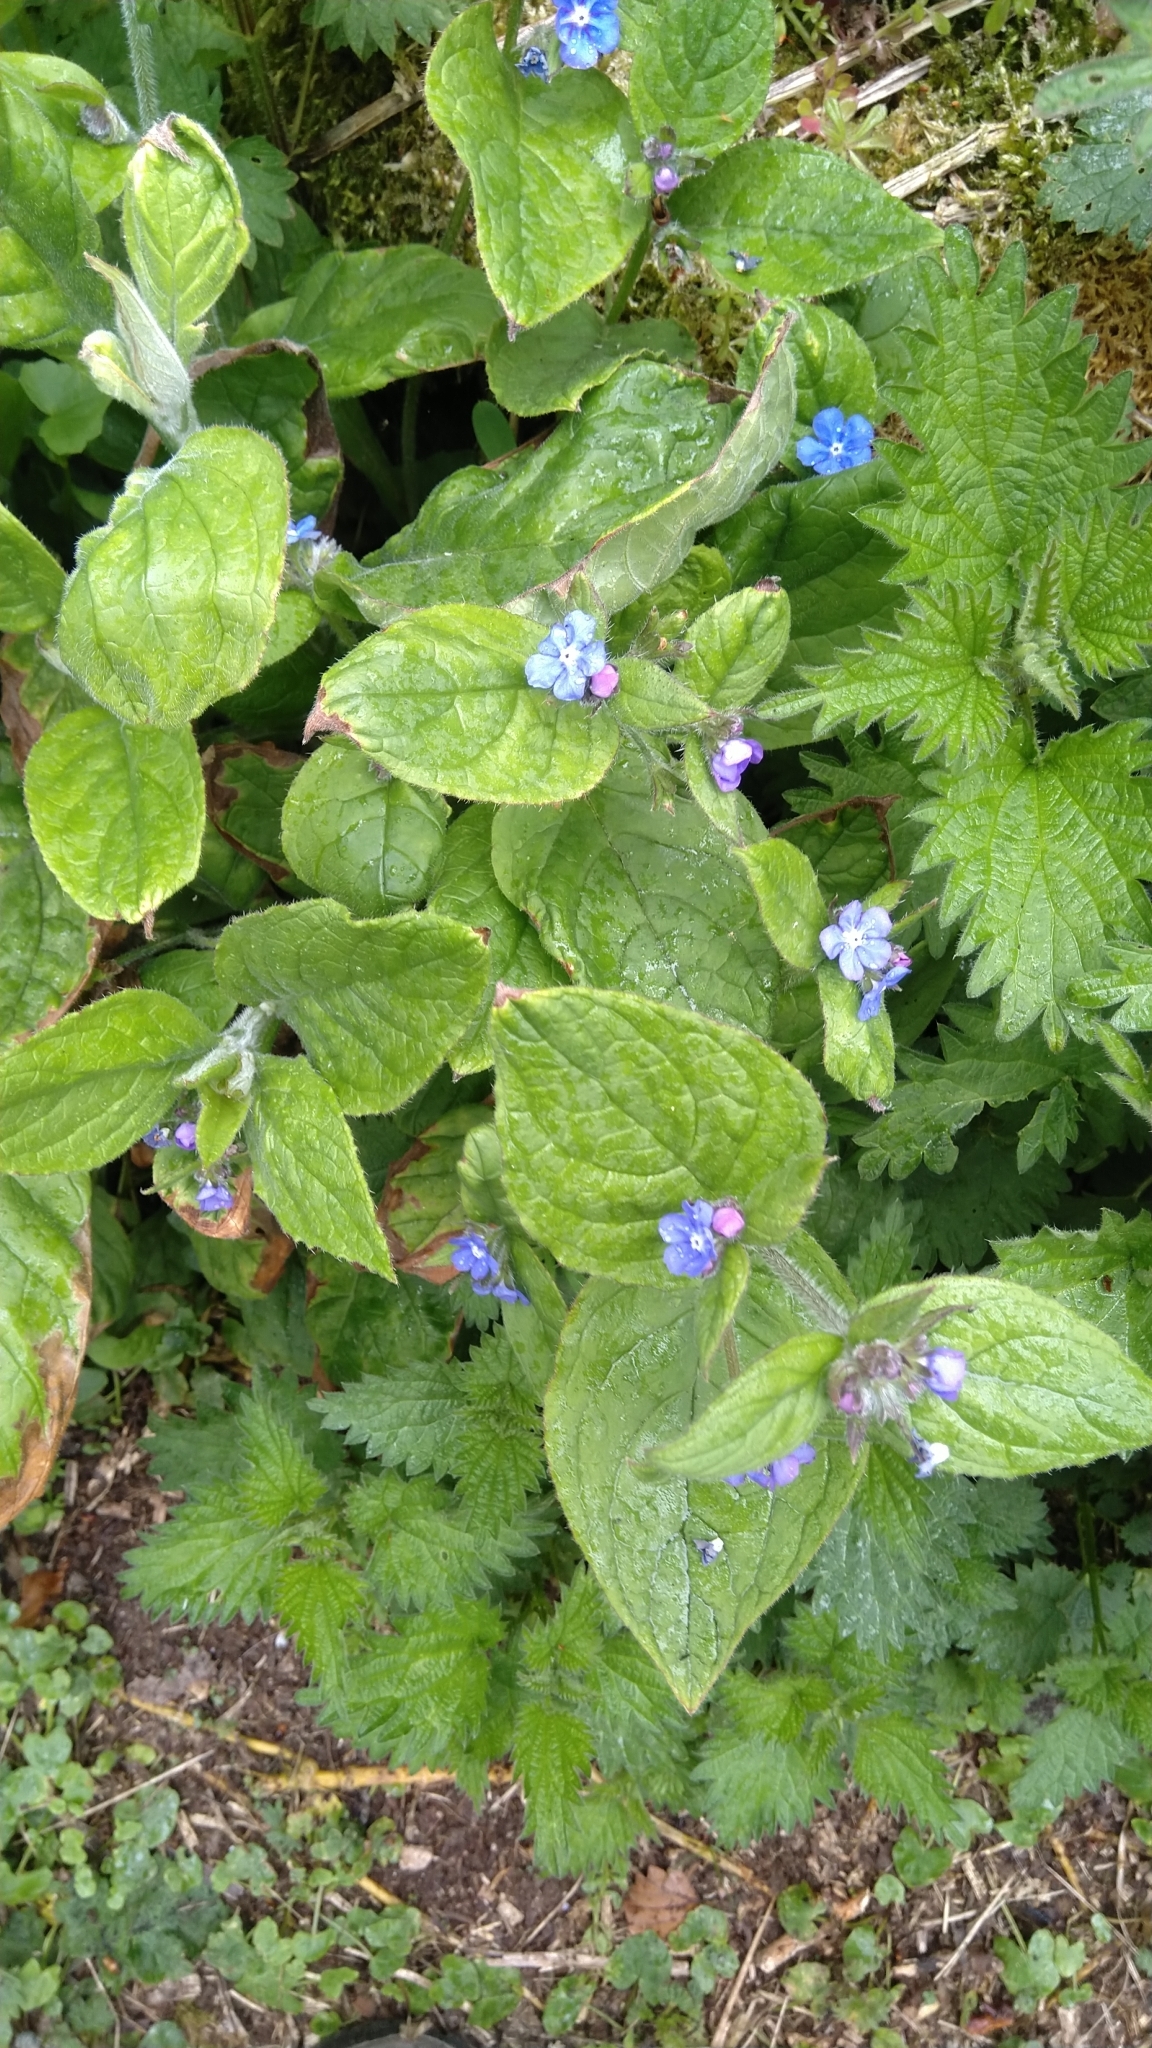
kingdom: Plantae
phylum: Tracheophyta
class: Magnoliopsida
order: Boraginales
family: Boraginaceae
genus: Pentaglottis
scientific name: Pentaglottis sempervirens
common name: Green alkanet
